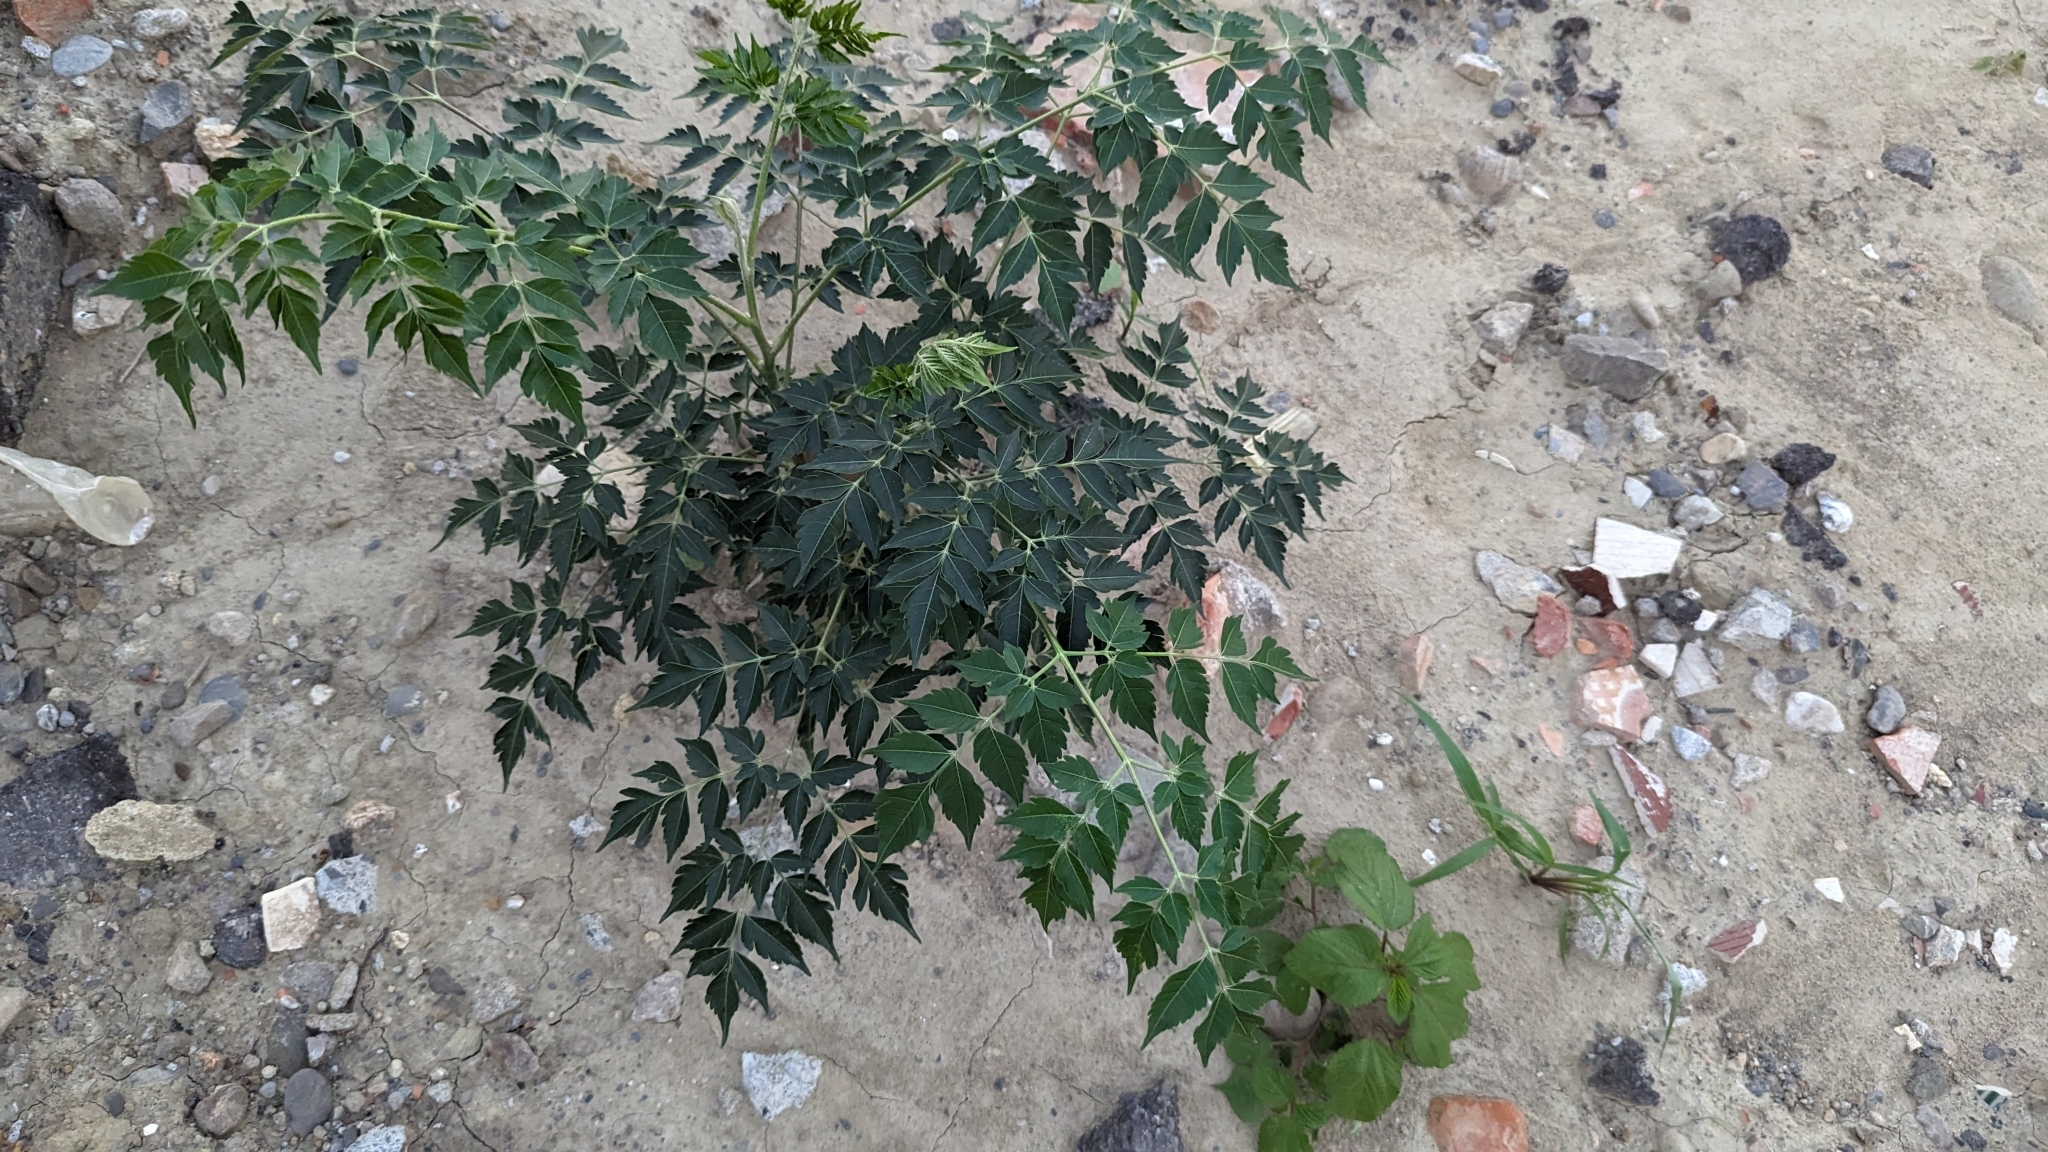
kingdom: Plantae
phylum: Tracheophyta
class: Magnoliopsida
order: Sapindales
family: Meliaceae
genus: Melia
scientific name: Melia azedarach
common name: Chinaberrytree
